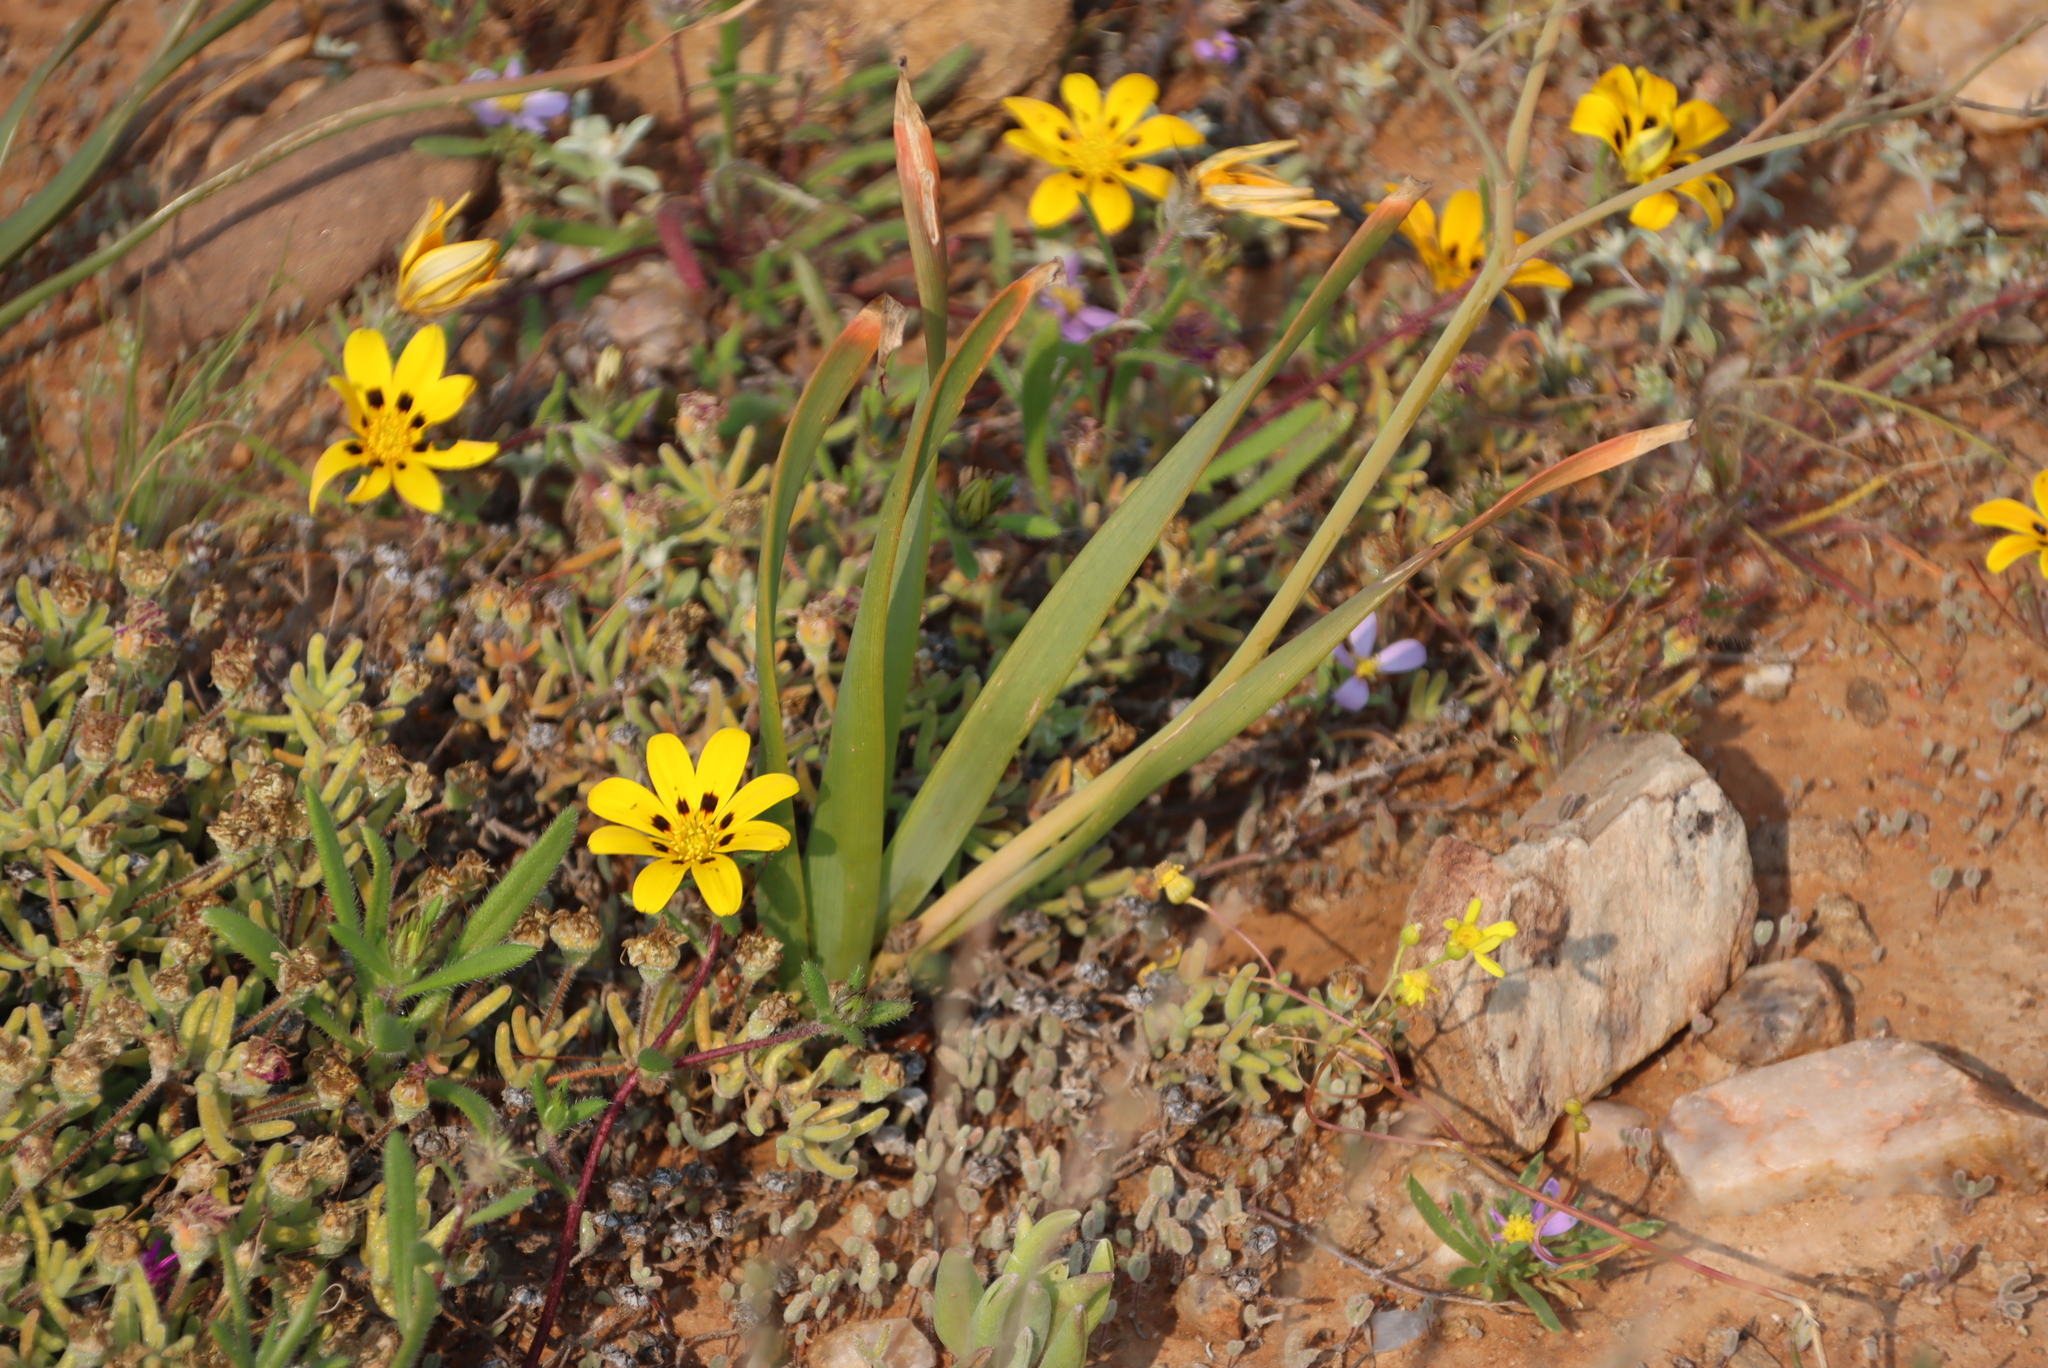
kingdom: Plantae
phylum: Tracheophyta
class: Liliopsida
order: Asparagales
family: Asphodelaceae
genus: Trachyandra
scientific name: Trachyandra muricata
